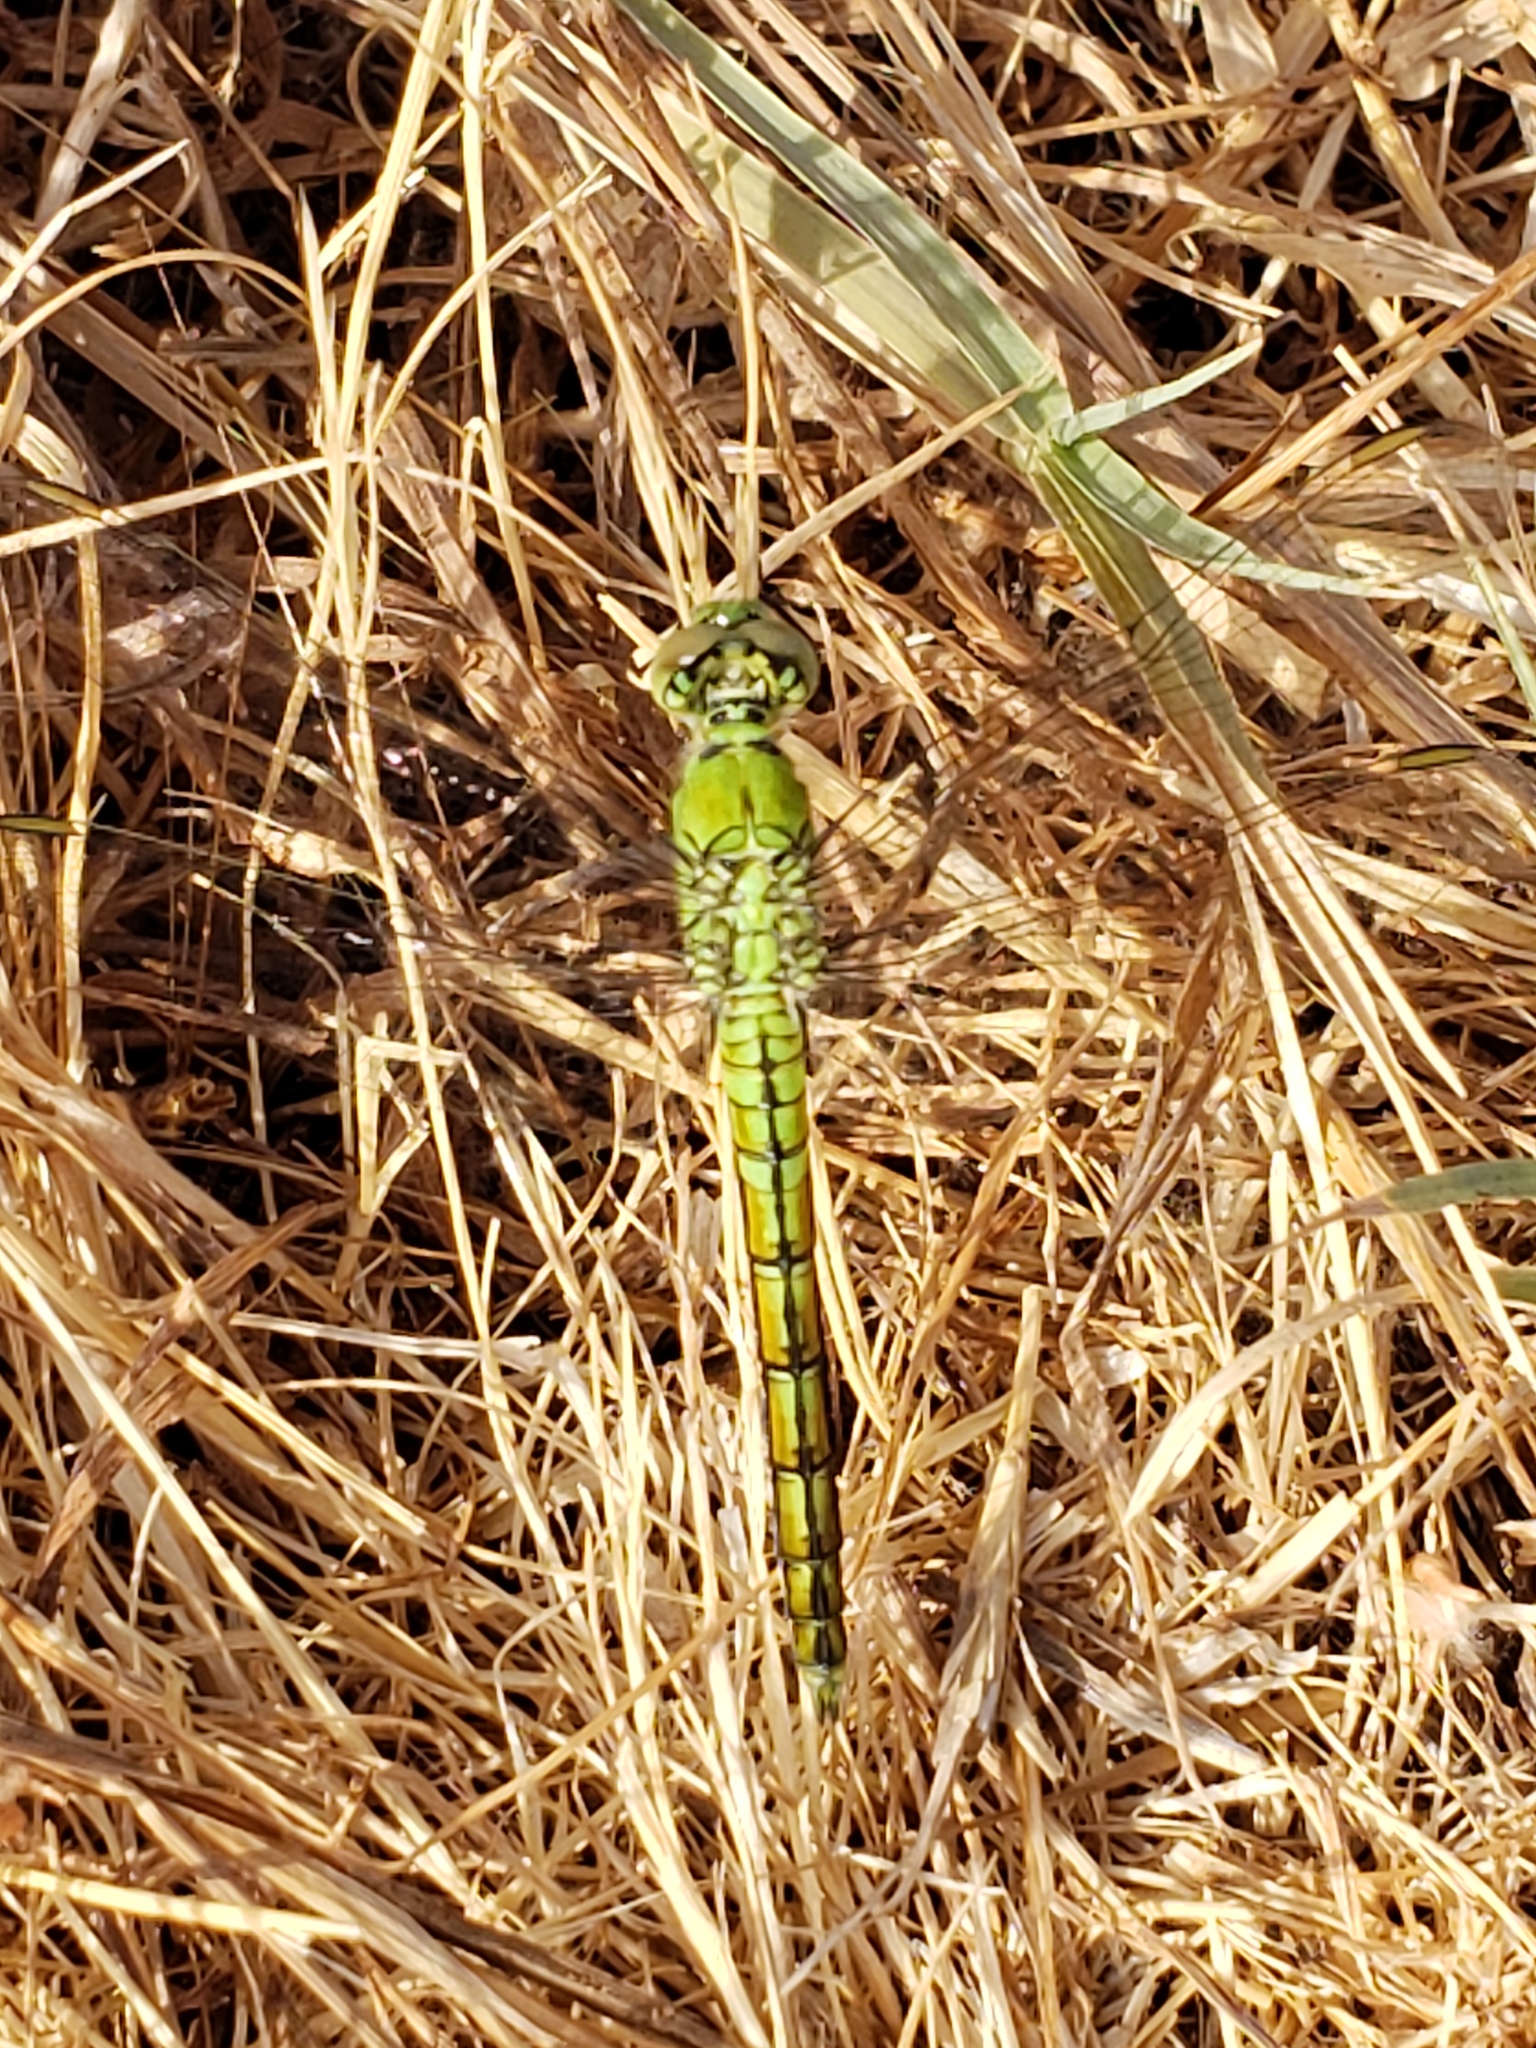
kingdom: Animalia
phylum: Arthropoda
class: Insecta
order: Odonata
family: Libellulidae
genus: Erythemis
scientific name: Erythemis collocata
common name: Western pondhawk
